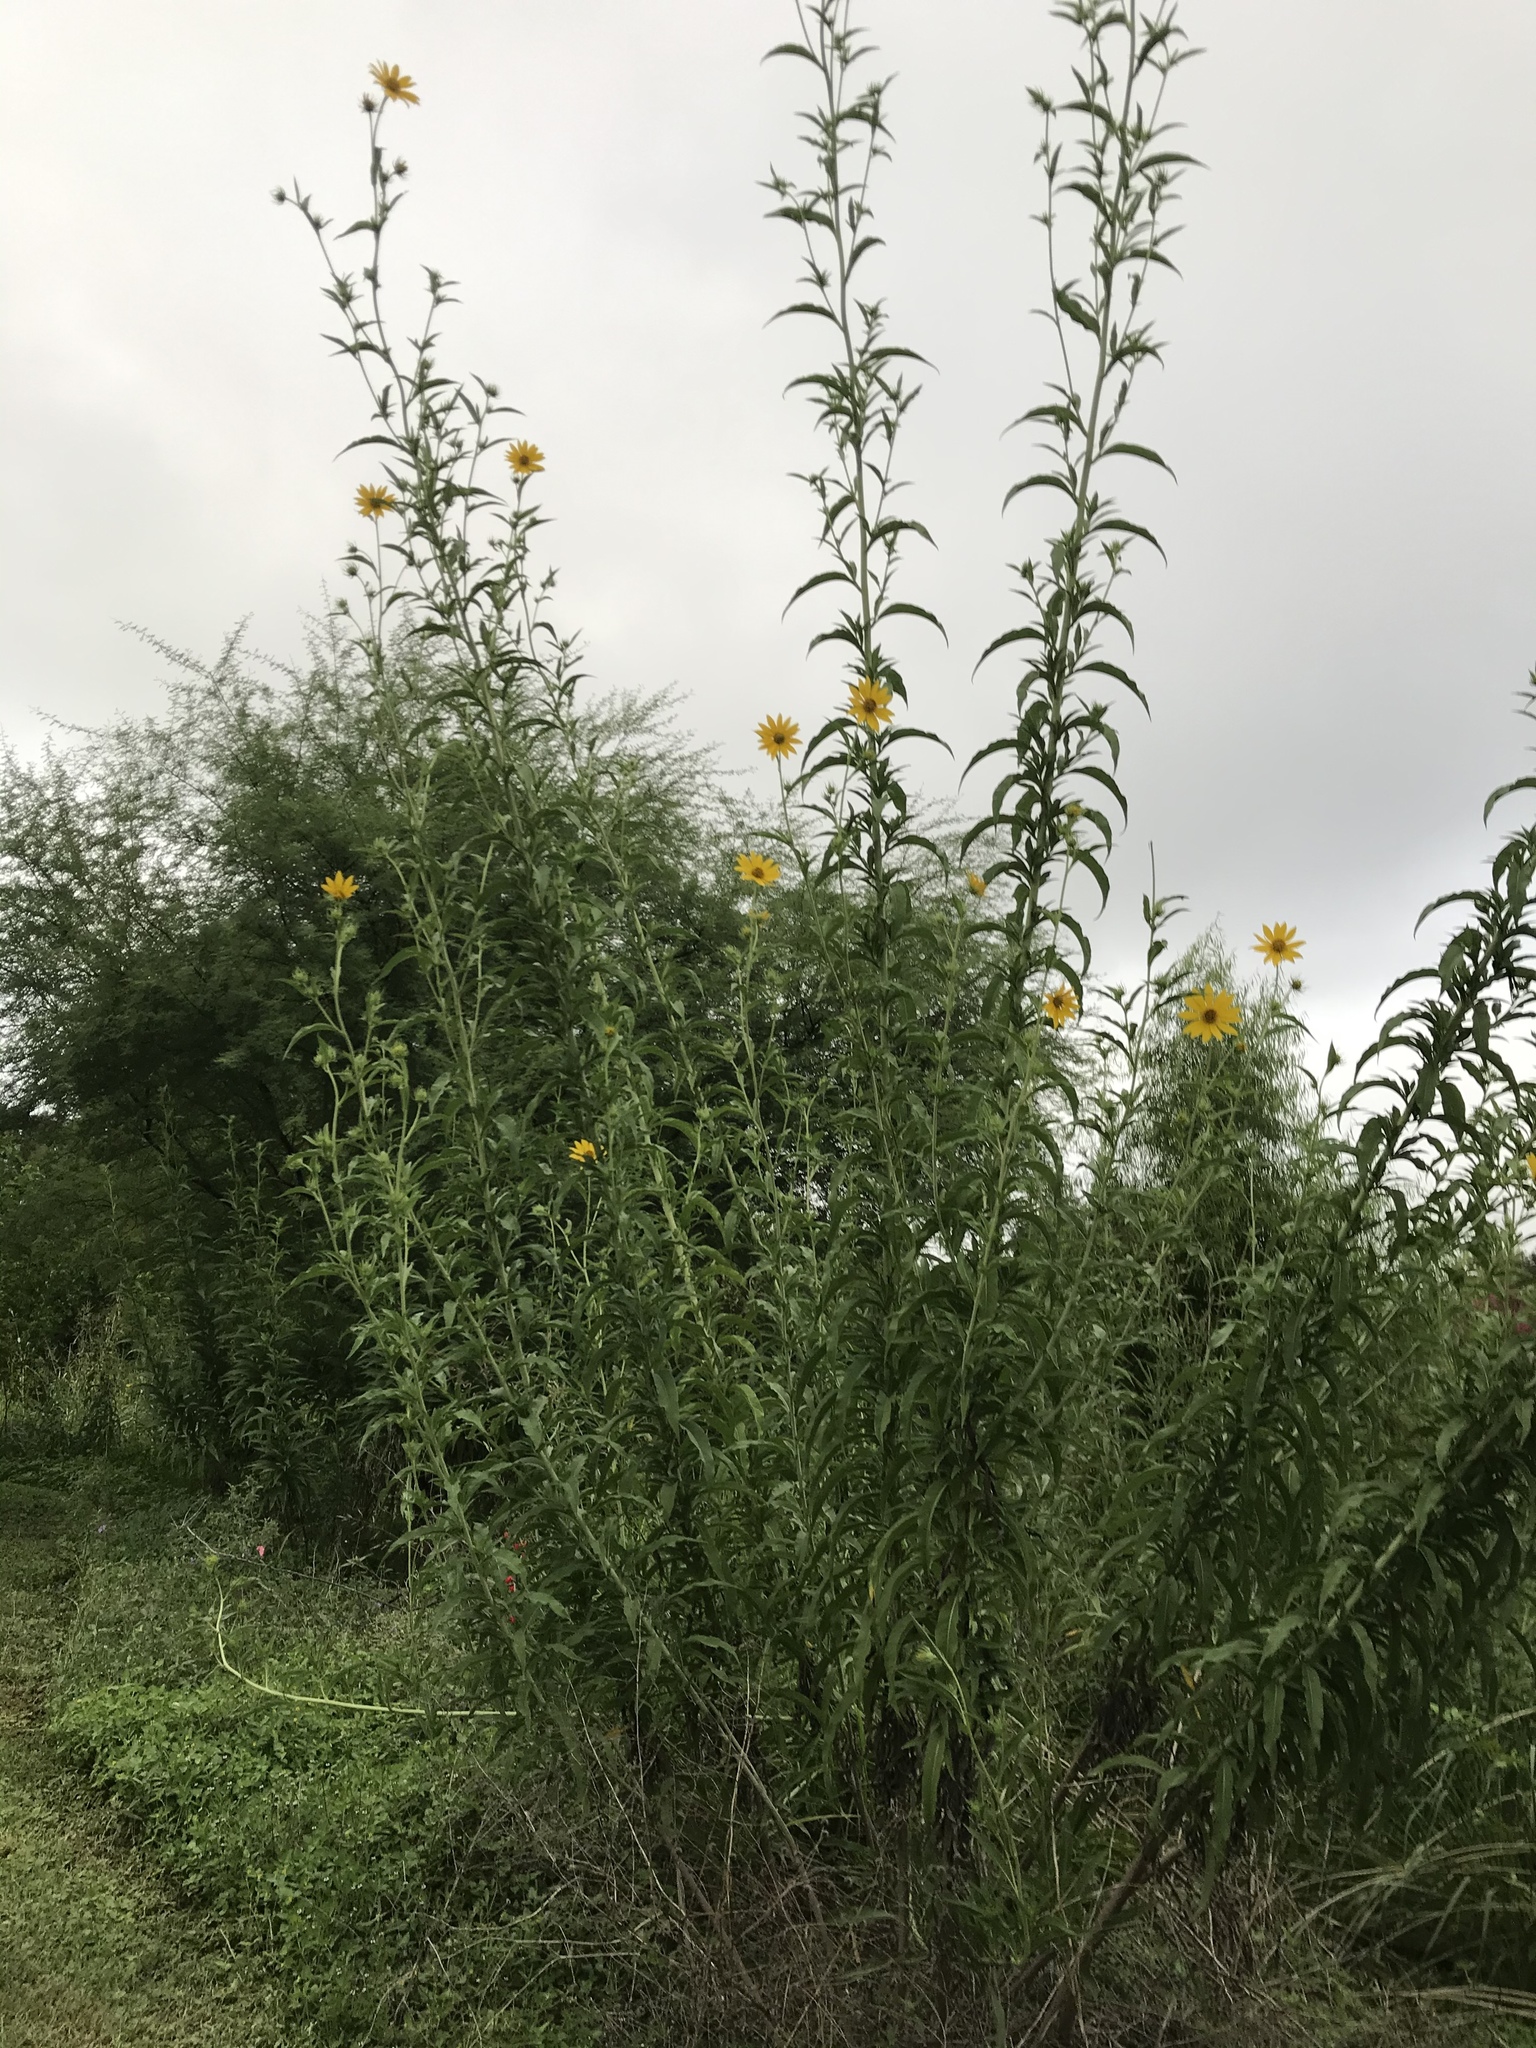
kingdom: Plantae
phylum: Tracheophyta
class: Magnoliopsida
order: Asterales
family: Asteraceae
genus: Helianthus
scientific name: Helianthus maximiliani
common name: Maximilian's sunflower
